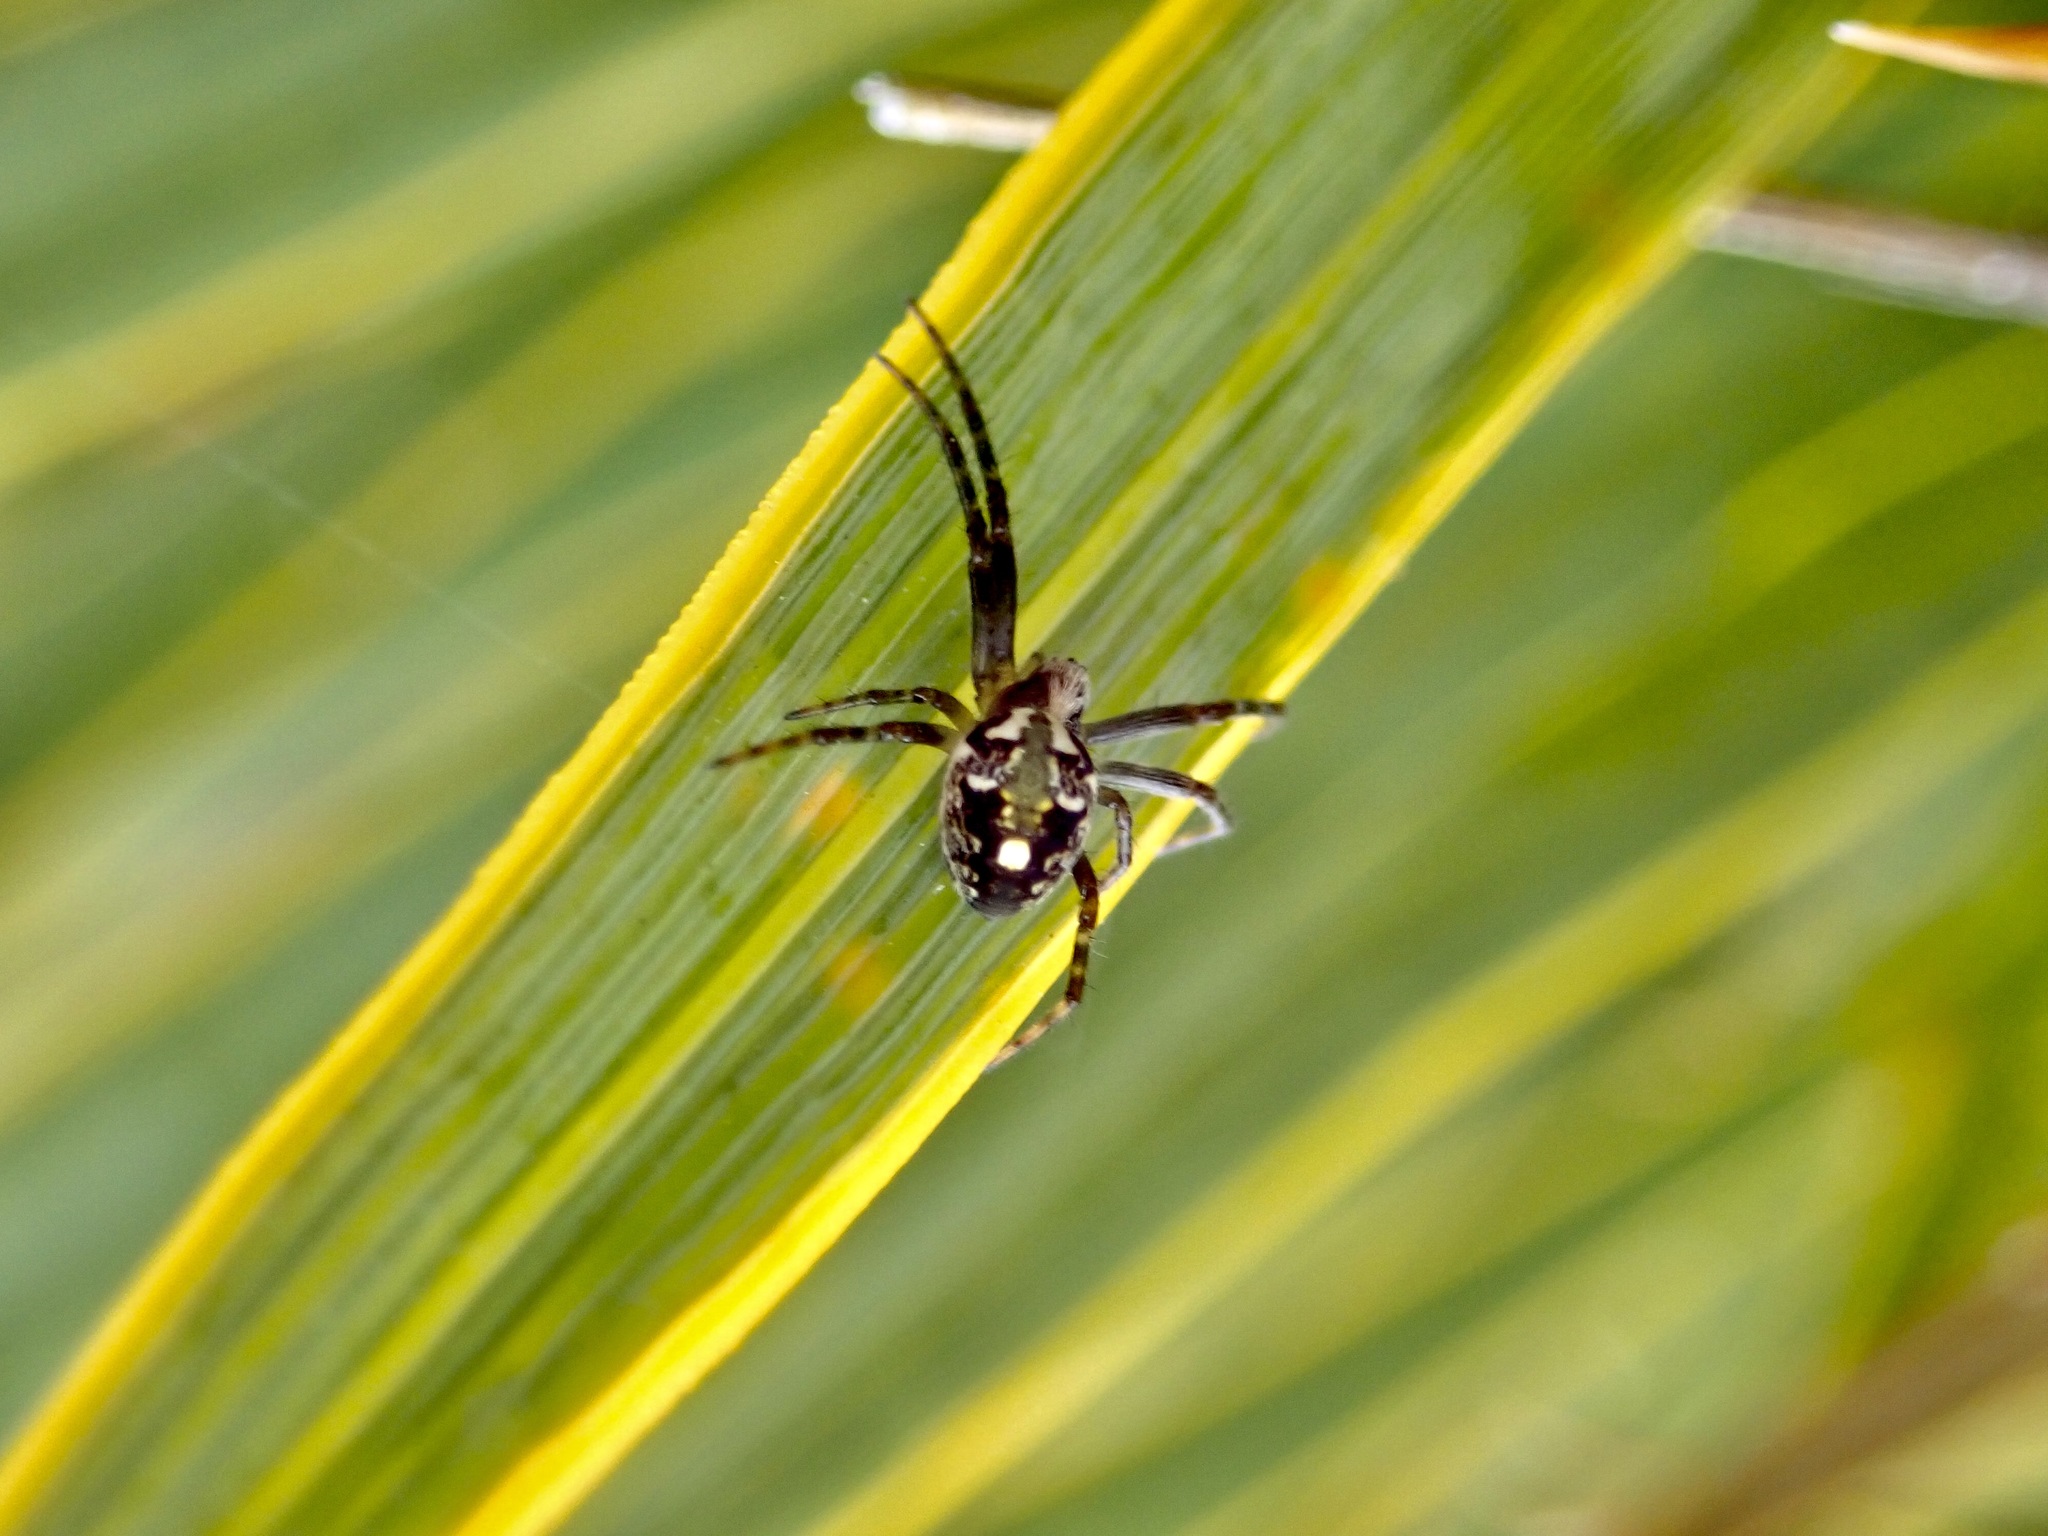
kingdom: Animalia
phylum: Arthropoda
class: Arachnida
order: Araneae
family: Araneidae
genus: Novaranea
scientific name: Novaranea queribunda
